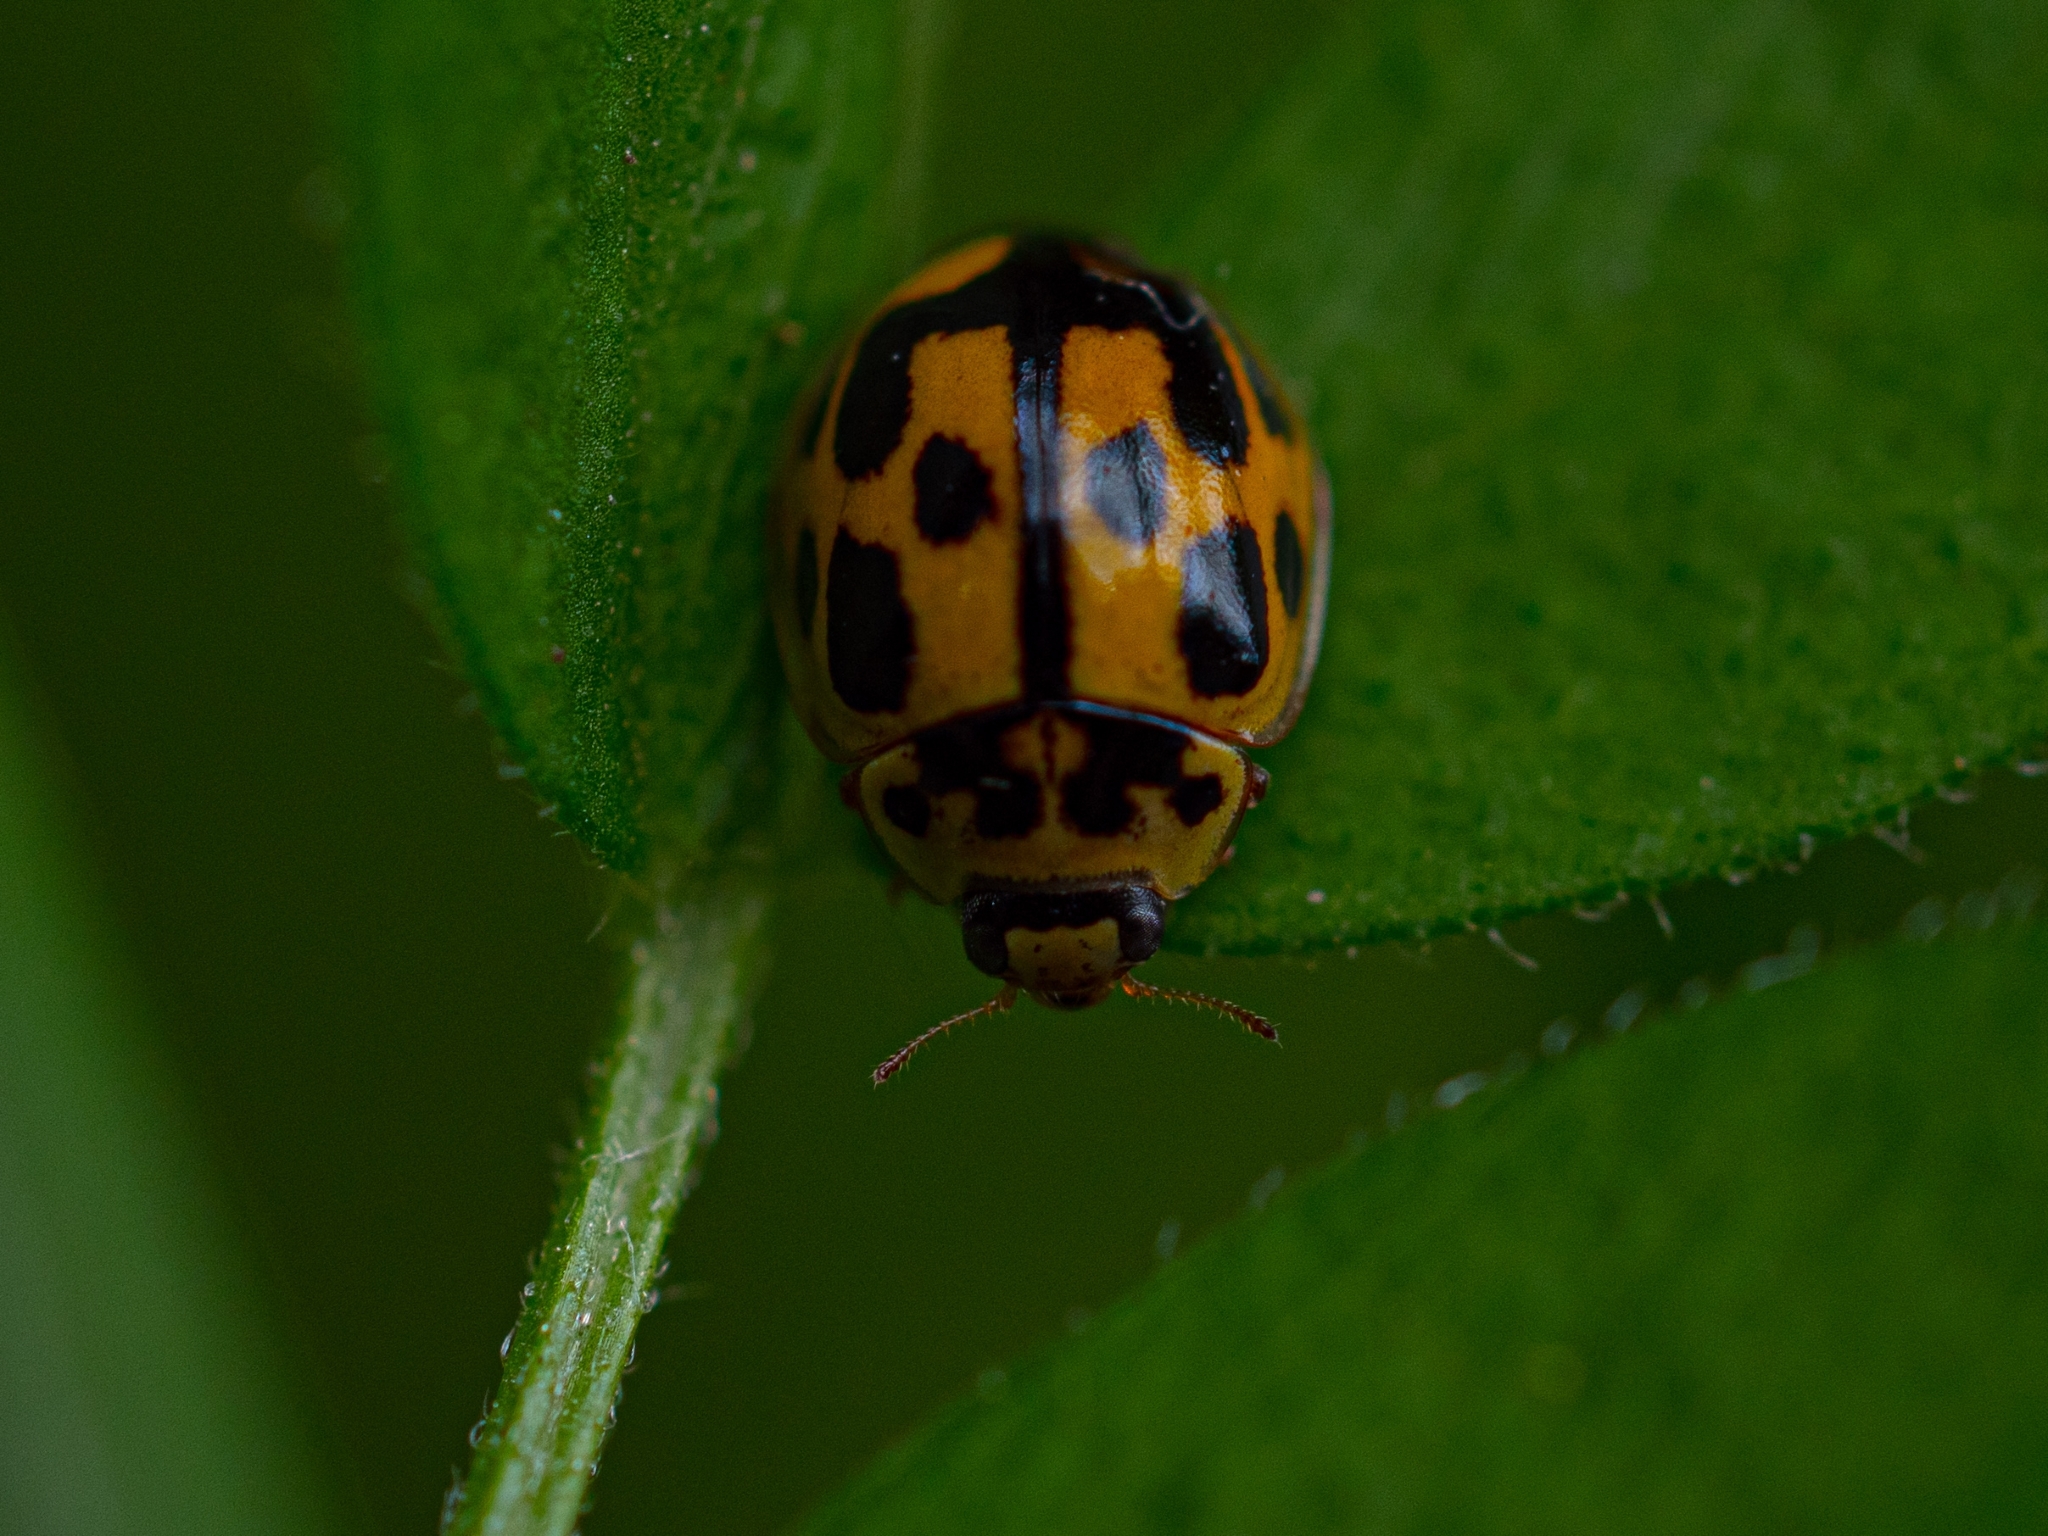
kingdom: Animalia
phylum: Arthropoda
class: Insecta
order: Coleoptera
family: Coccinellidae
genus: Propylaea
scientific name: Propylaea quatuordecimpunctata
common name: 14-spotted ladybird beetle
